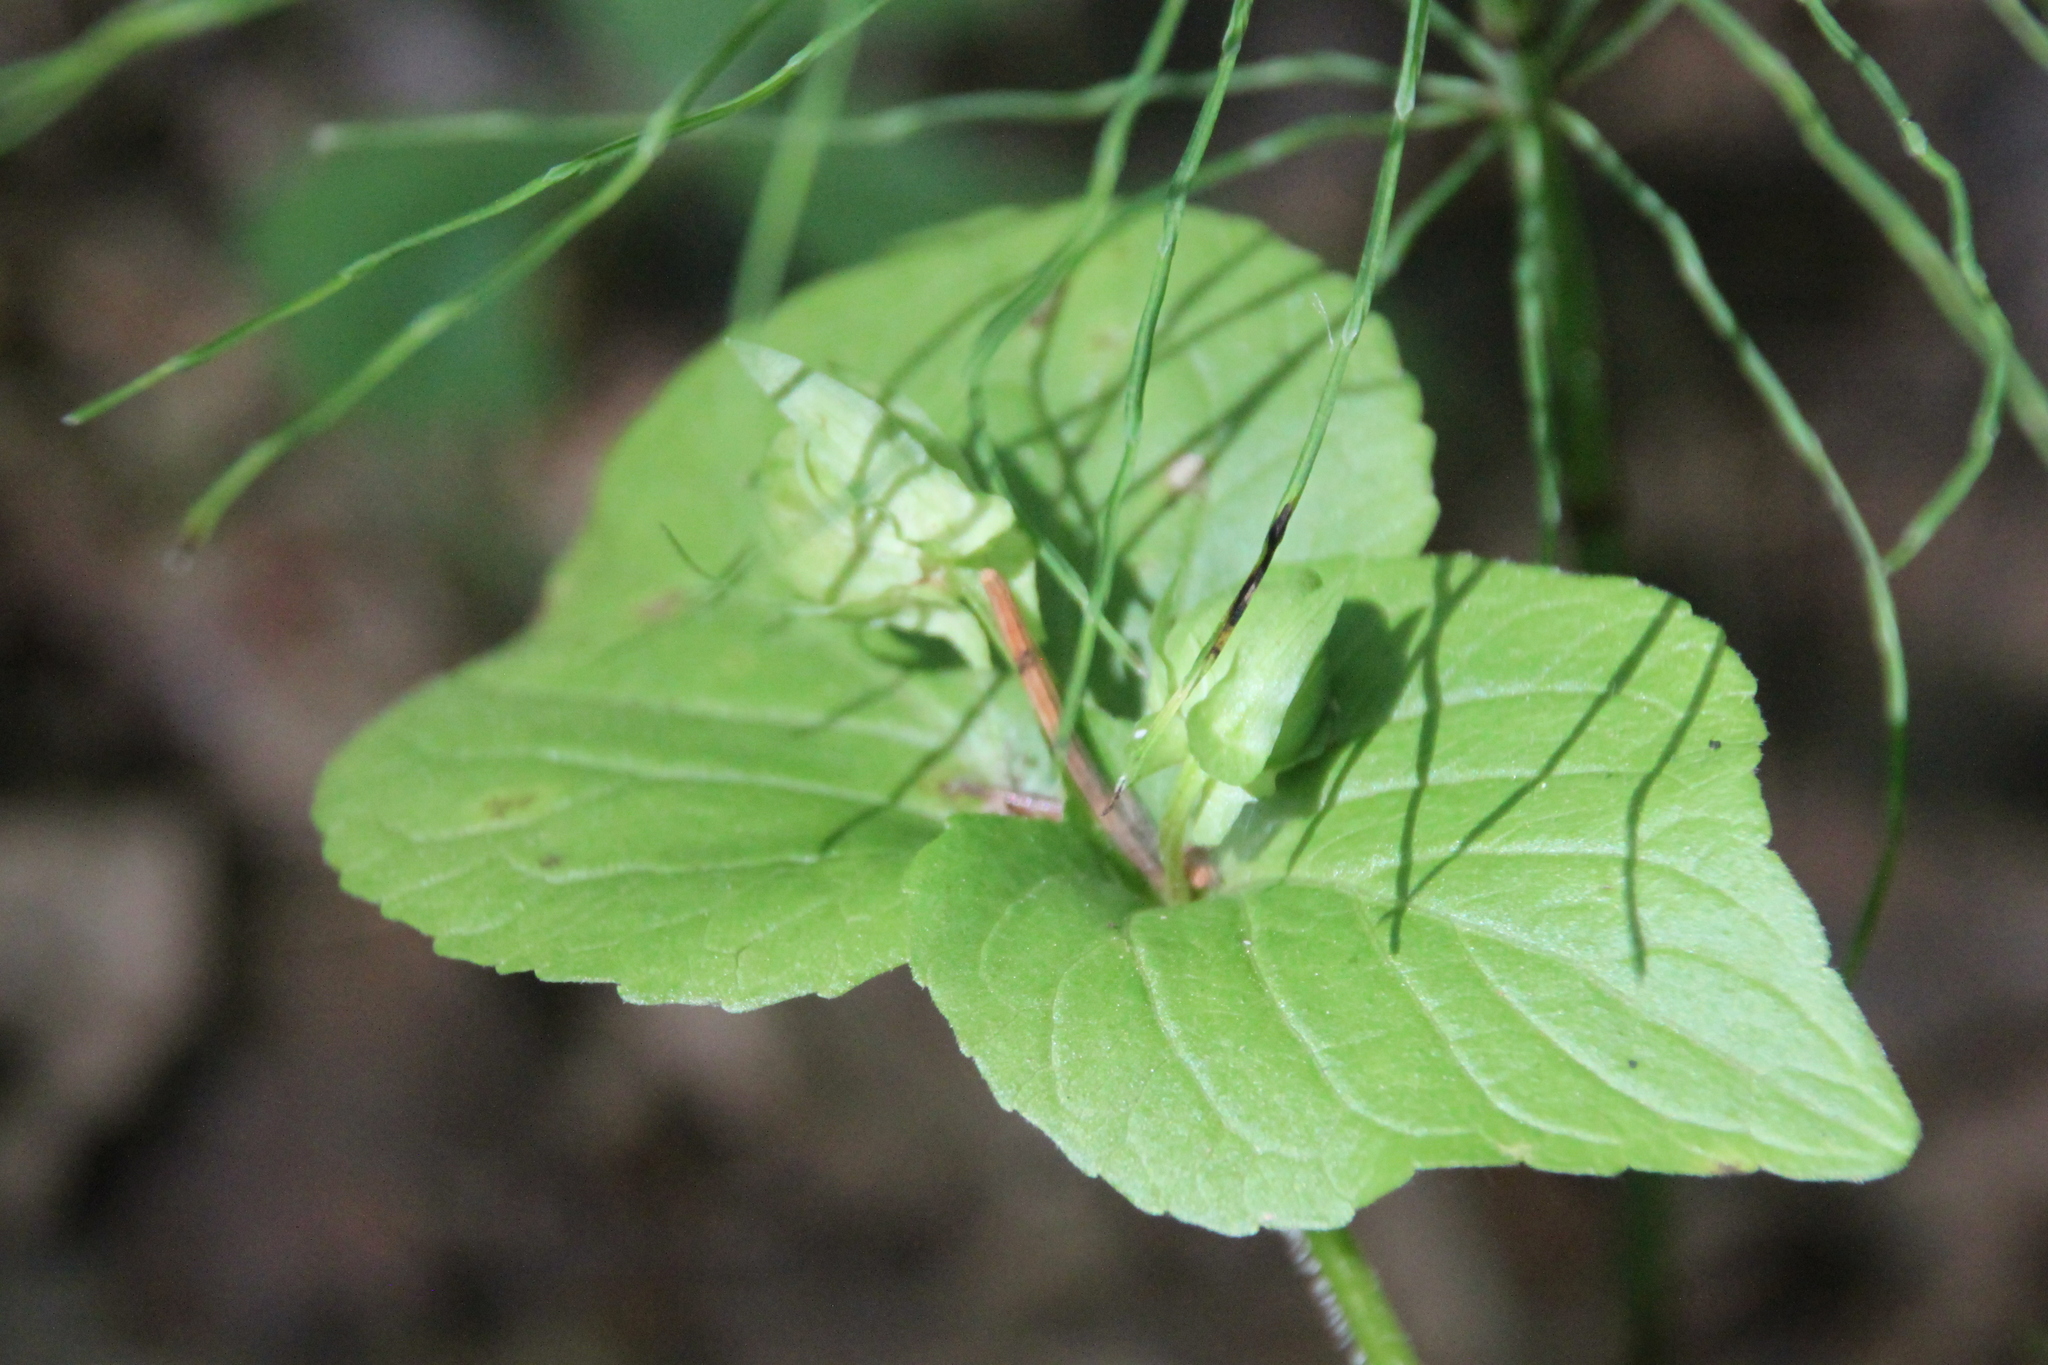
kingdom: Plantae
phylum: Tracheophyta
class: Magnoliopsida
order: Malpighiales
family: Violaceae
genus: Viola
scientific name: Viola mirabilis
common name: Wonder violet
